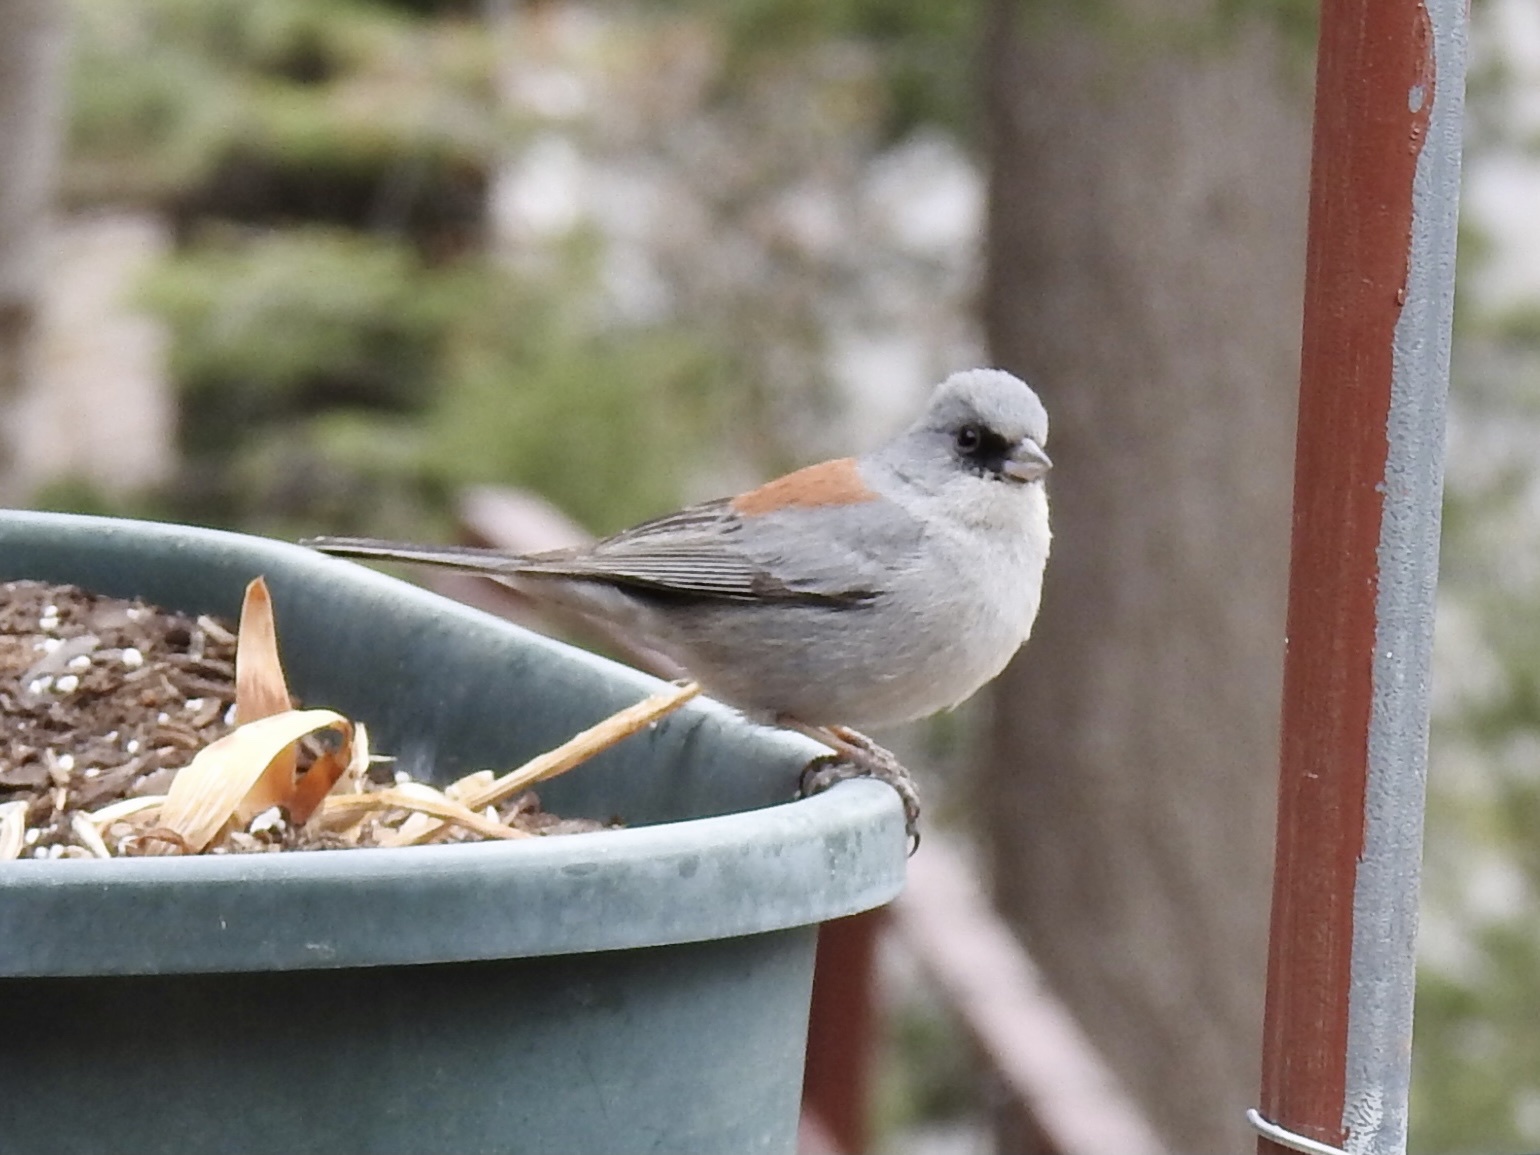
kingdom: Animalia
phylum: Chordata
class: Aves
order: Passeriformes
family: Passerellidae
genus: Junco
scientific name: Junco hyemalis
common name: Dark-eyed junco
